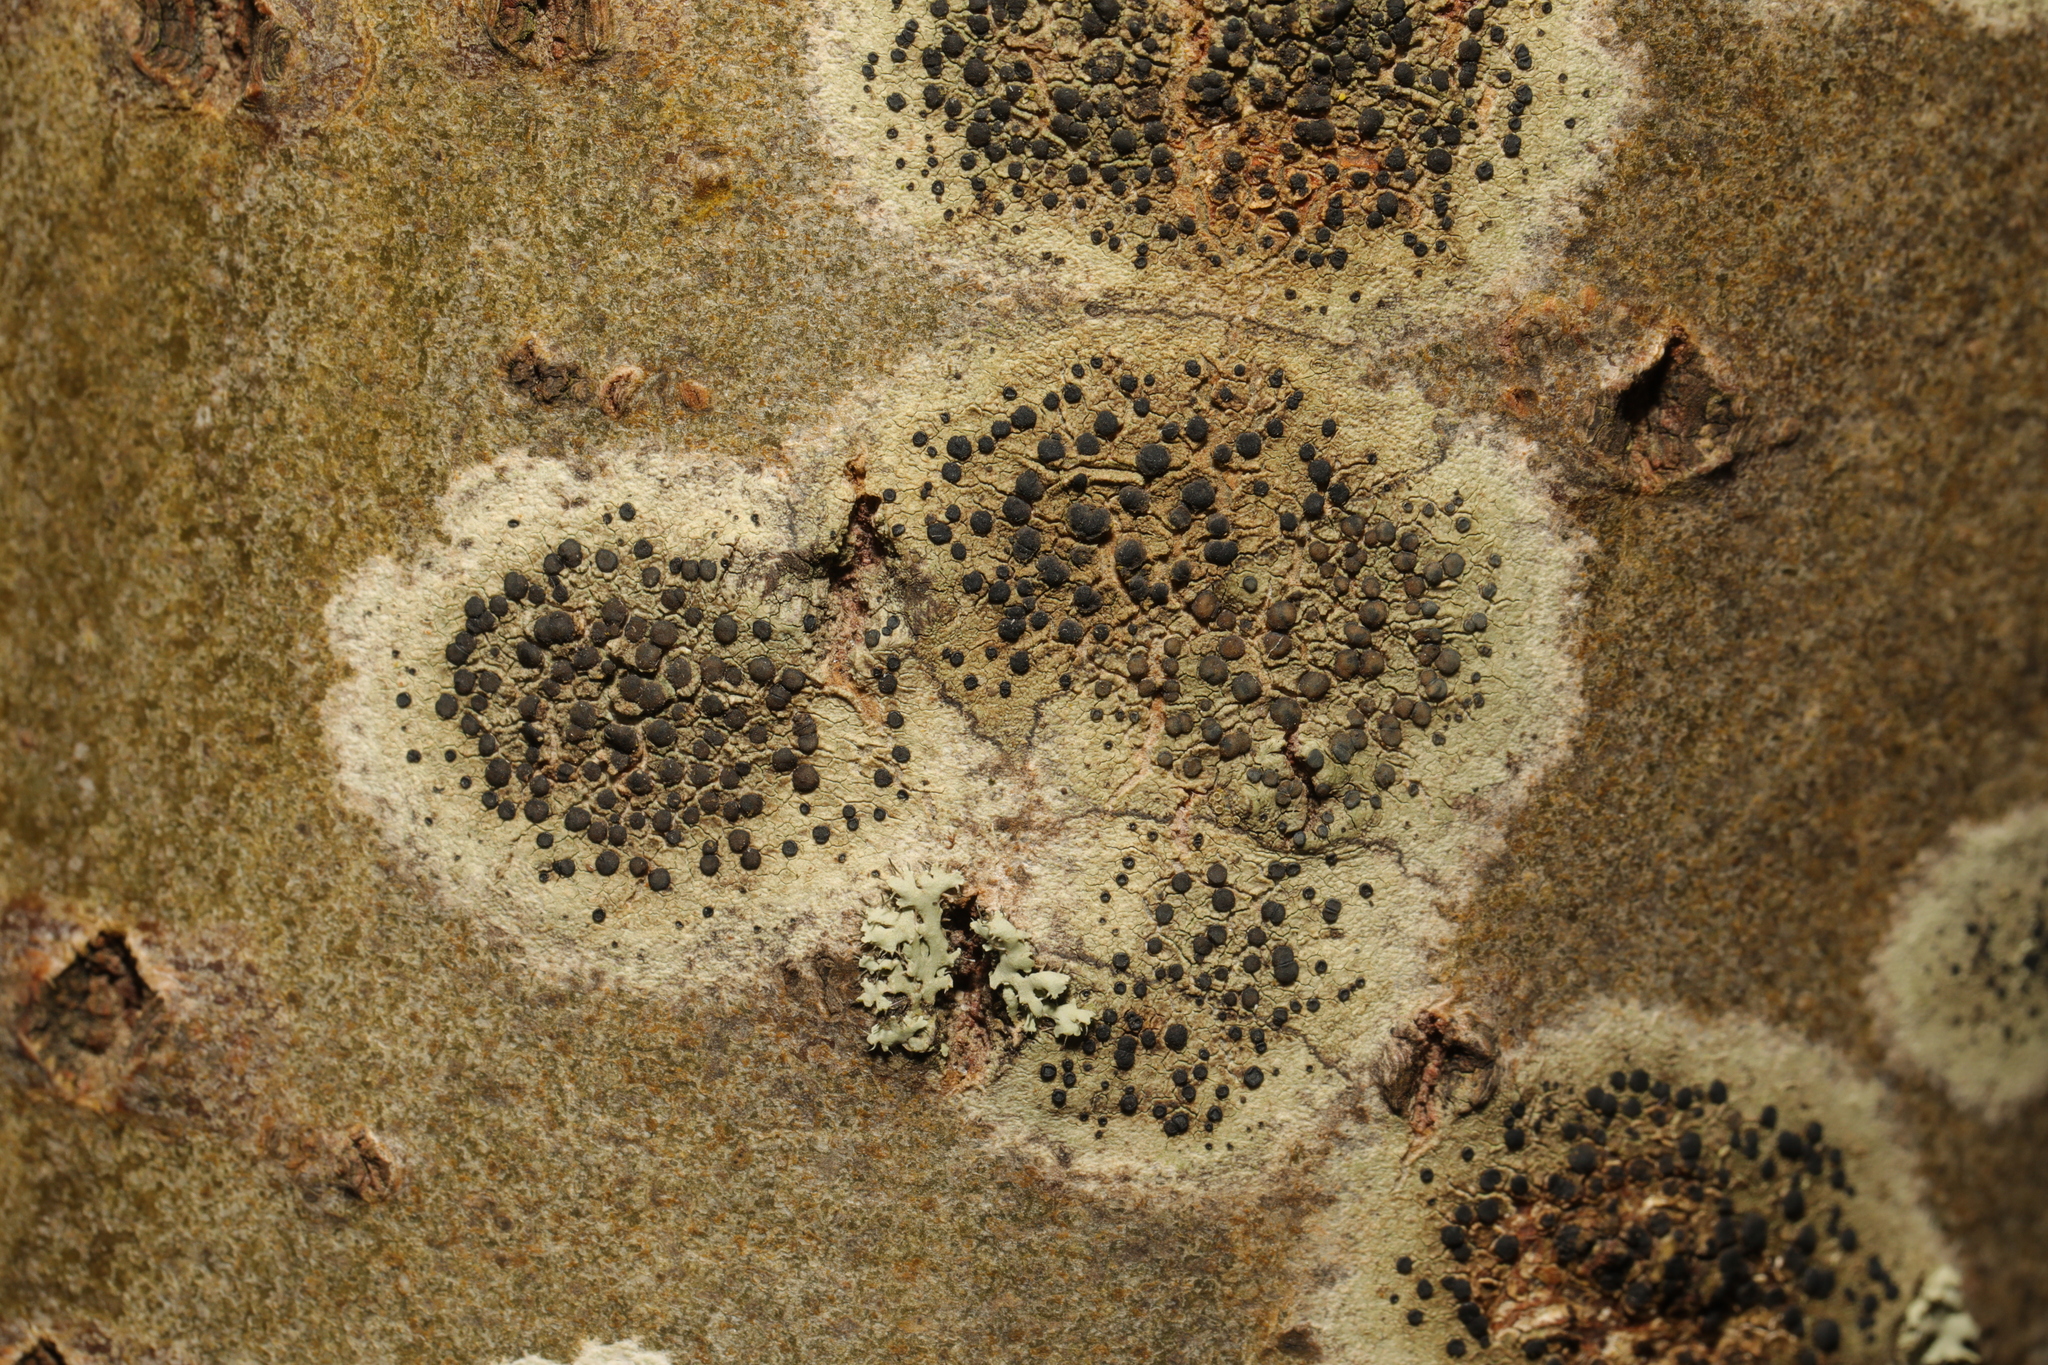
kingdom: Fungi
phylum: Ascomycota
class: Lecanoromycetes
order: Lecanorales
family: Lecanoraceae
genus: Lecidella
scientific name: Lecidella elaeochroma
